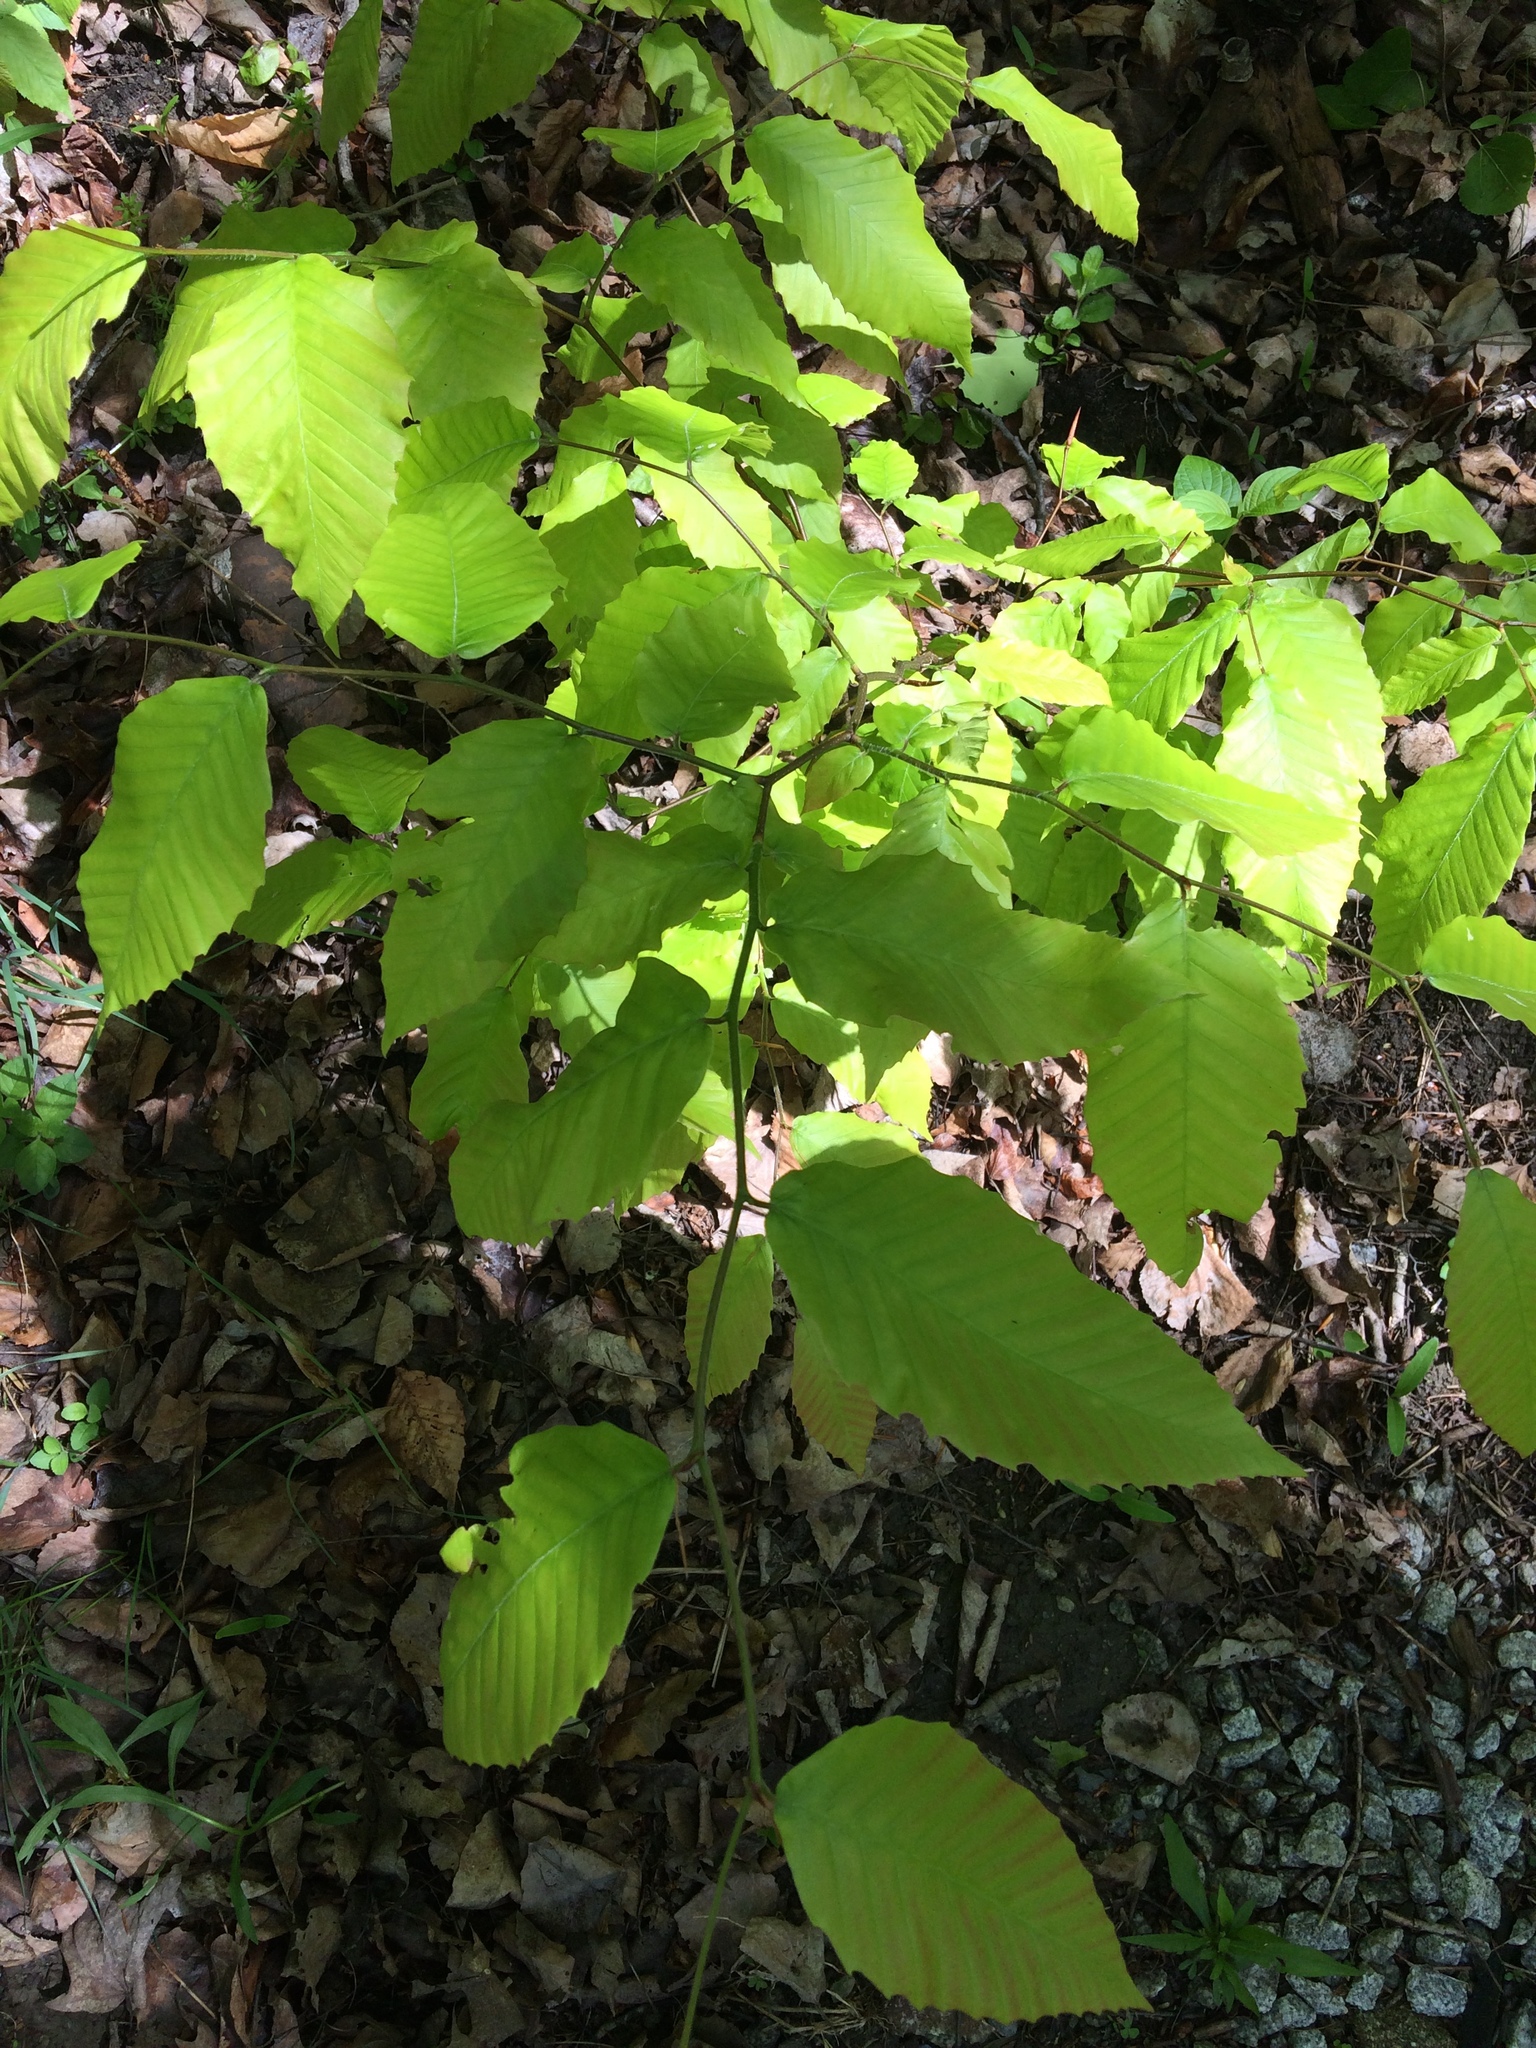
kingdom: Plantae
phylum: Tracheophyta
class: Magnoliopsida
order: Fagales
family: Fagaceae
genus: Fagus
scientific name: Fagus grandifolia
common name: American beech
